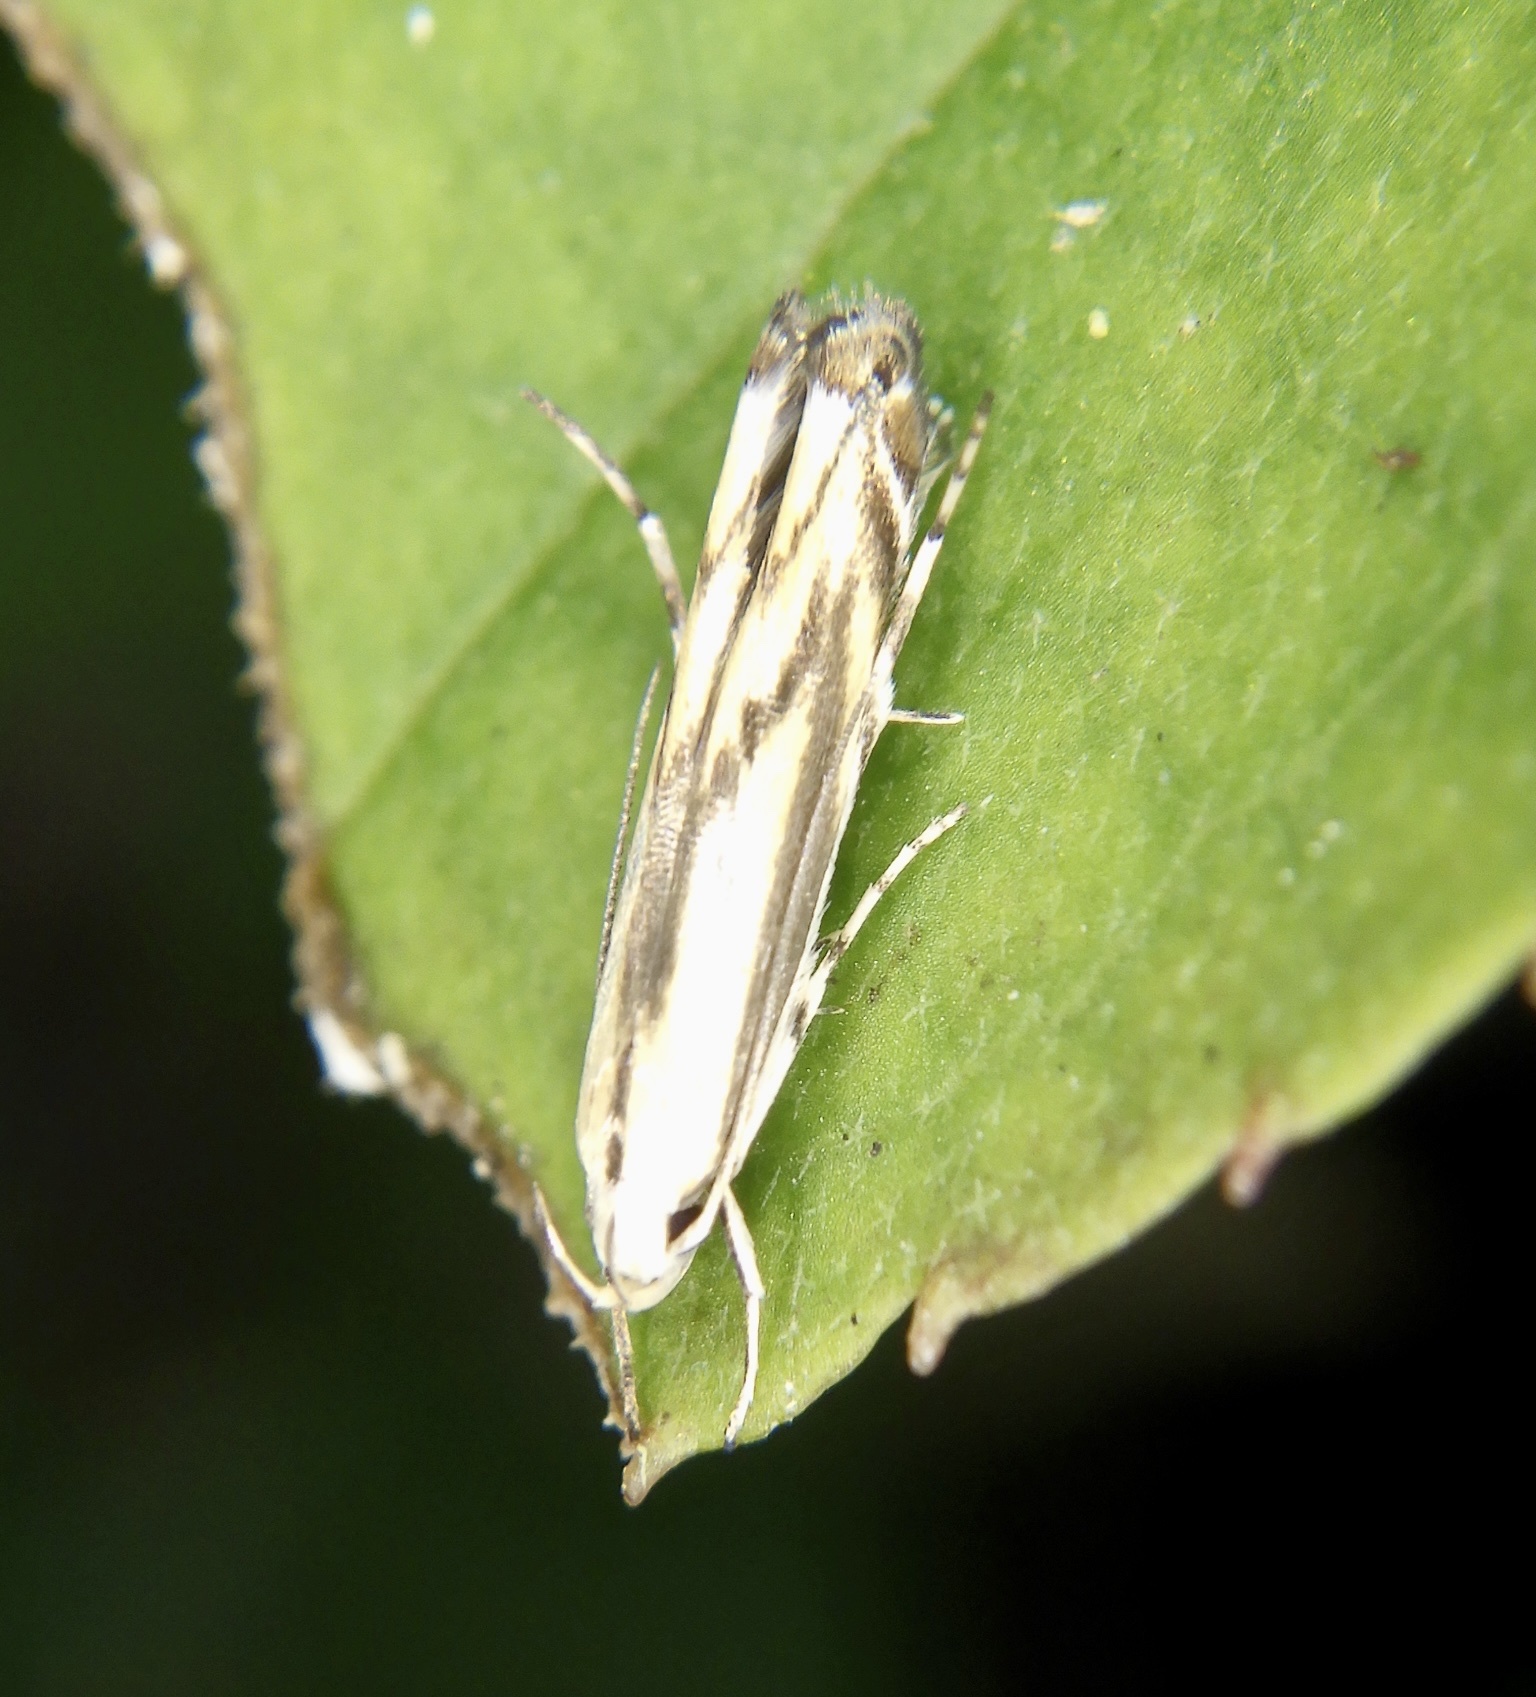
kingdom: Animalia
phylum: Arthropoda
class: Insecta
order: Lepidoptera
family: Gelechiidae
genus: Polyhymno
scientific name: Polyhymno pontifera
